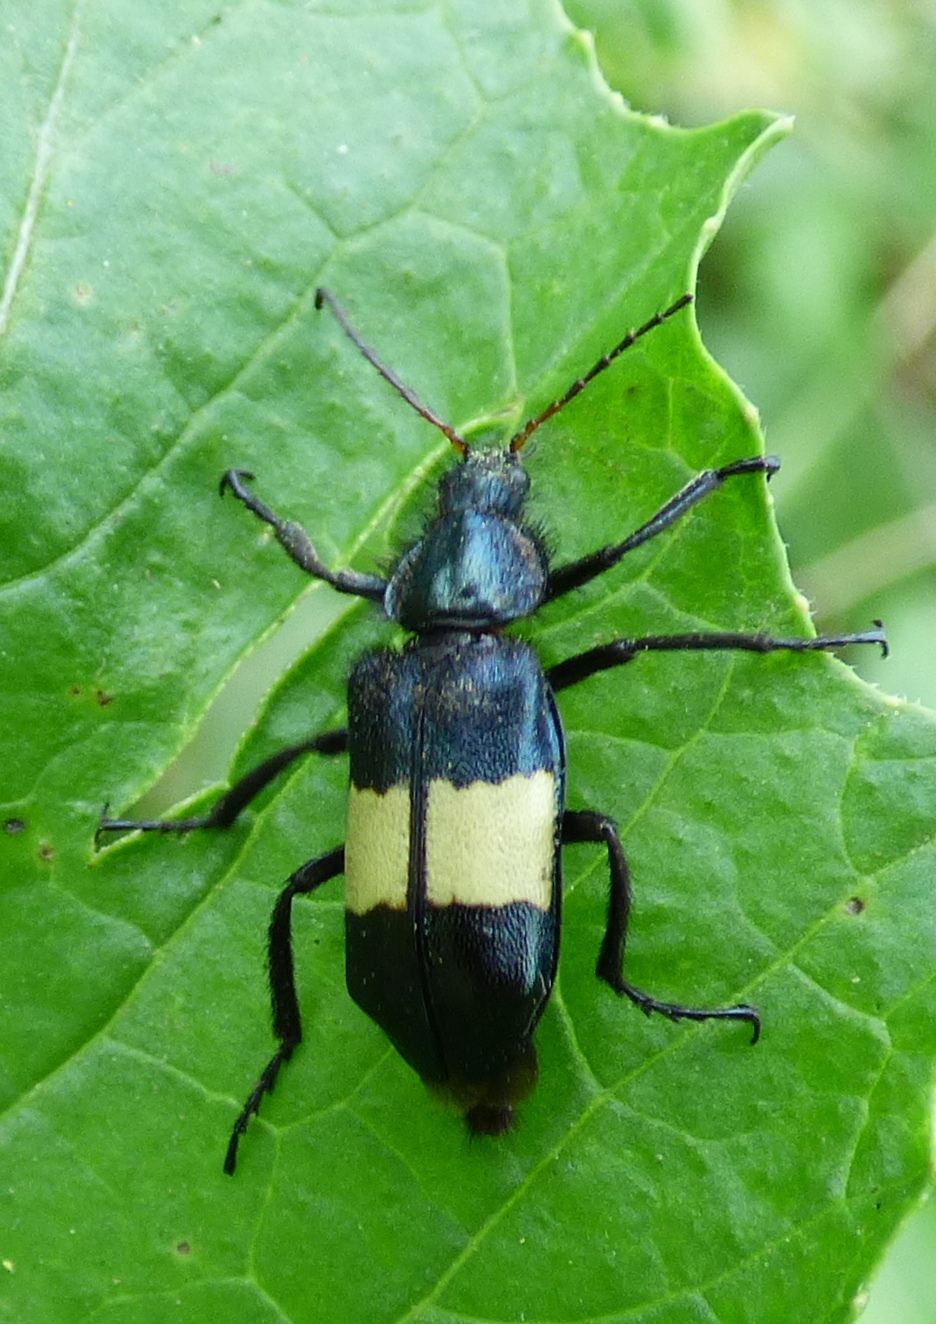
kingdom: Animalia
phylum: Arthropoda
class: Insecta
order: Coleoptera
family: Melyridae
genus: Astylus
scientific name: Astylus
